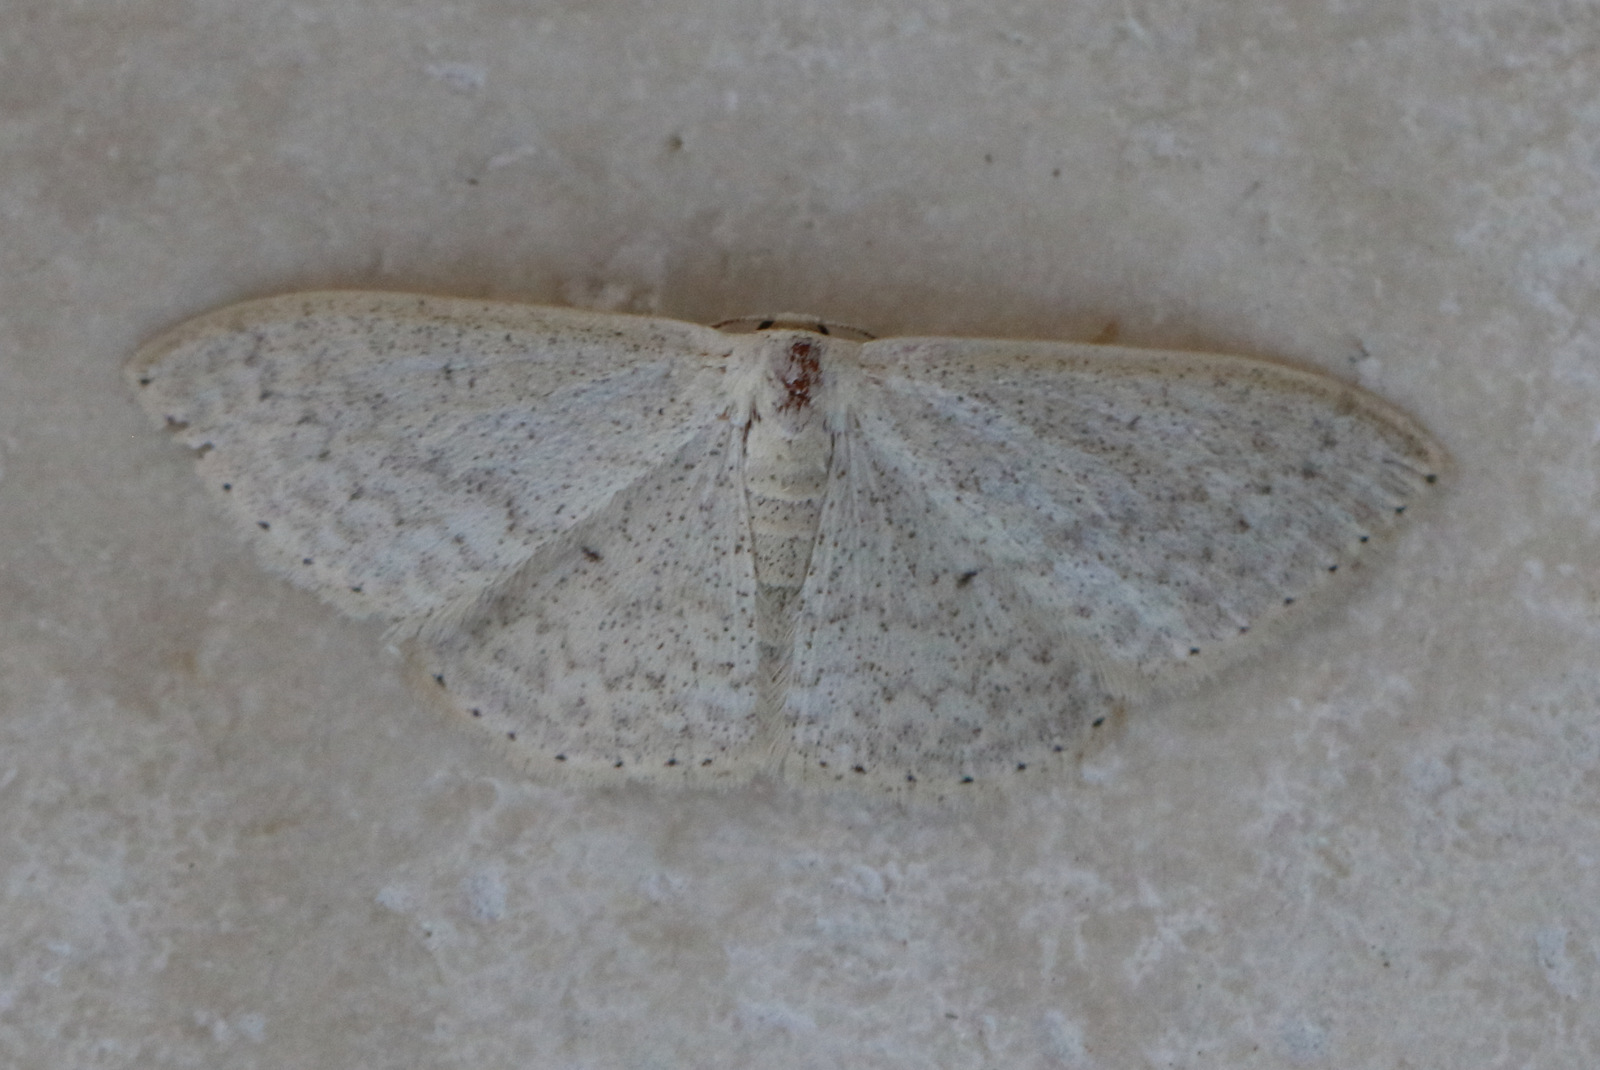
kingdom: Animalia
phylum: Arthropoda
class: Insecta
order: Lepidoptera
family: Geometridae
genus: Scopula
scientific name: Scopula optivata
